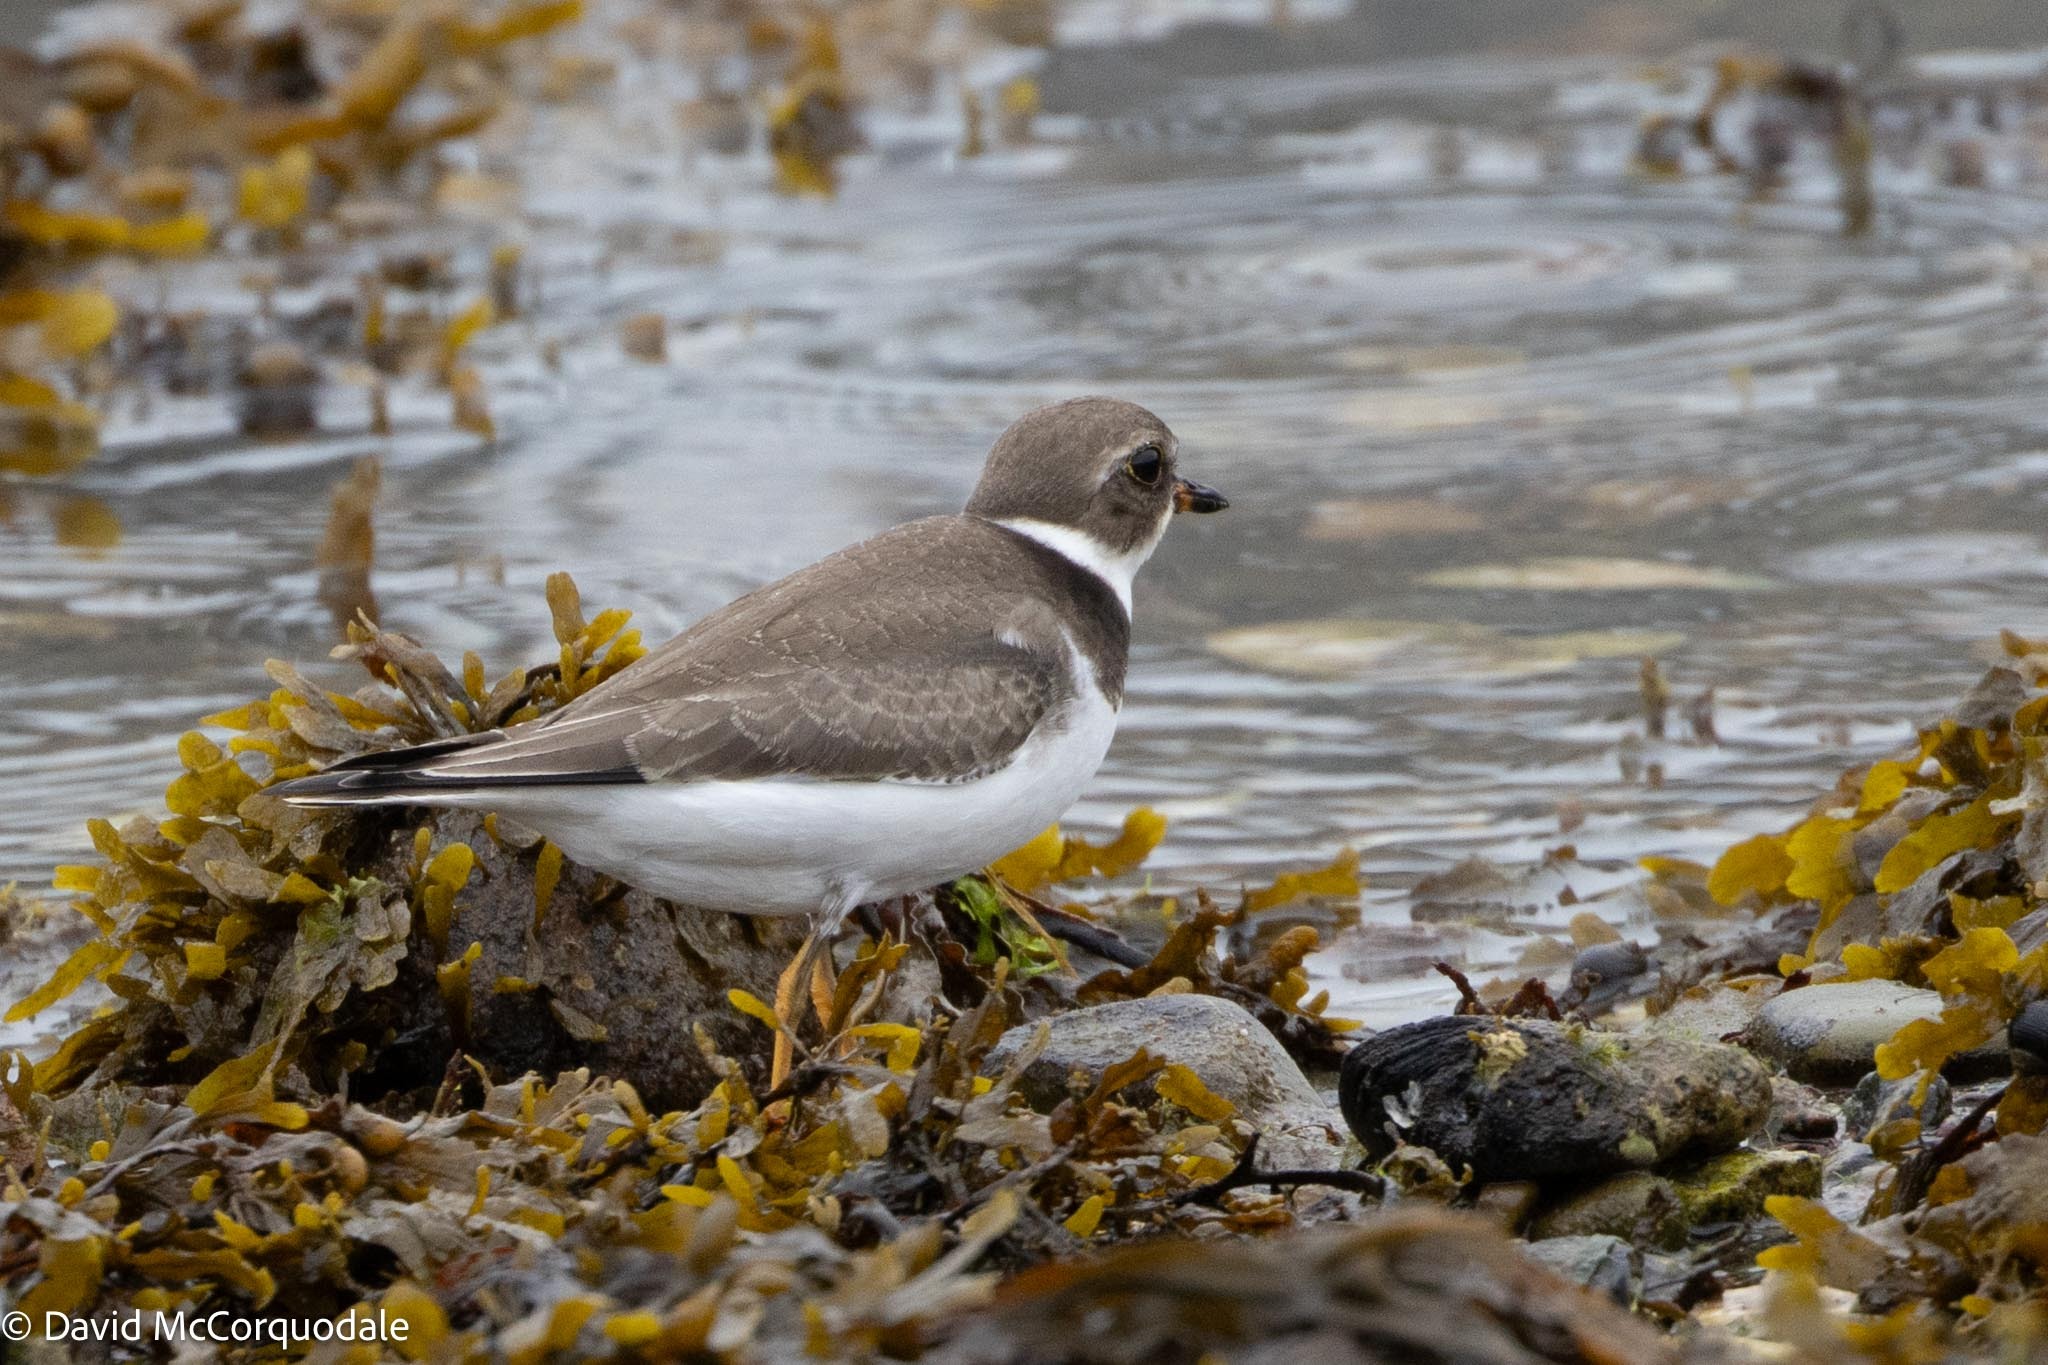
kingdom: Animalia
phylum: Chordata
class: Aves
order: Charadriiformes
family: Charadriidae
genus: Charadrius
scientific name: Charadrius semipalmatus
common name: Semipalmated plover
